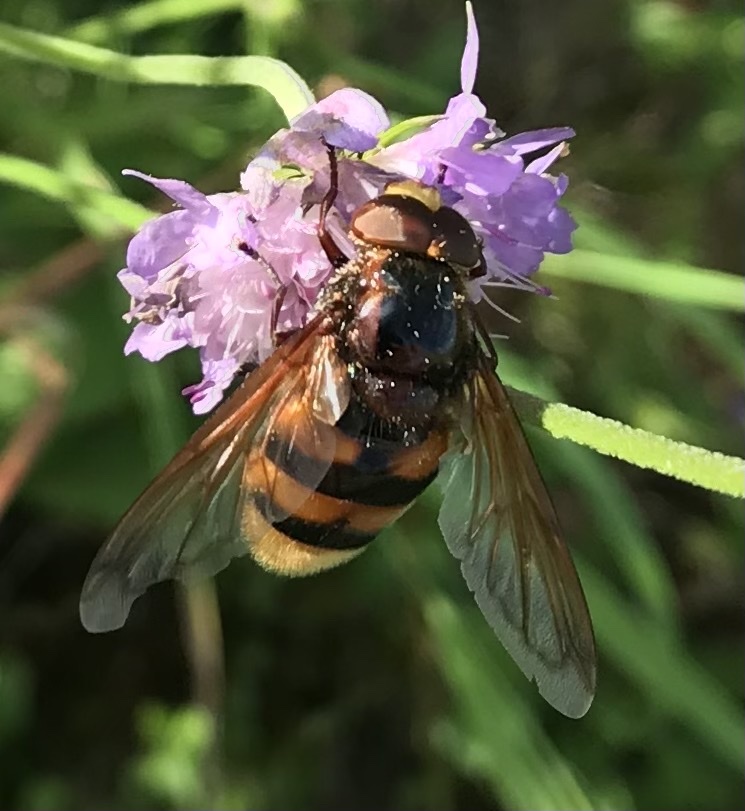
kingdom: Animalia
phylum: Arthropoda
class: Insecta
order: Diptera
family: Syrphidae
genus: Volucella
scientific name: Volucella zonaria
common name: Hornet hoverfly
